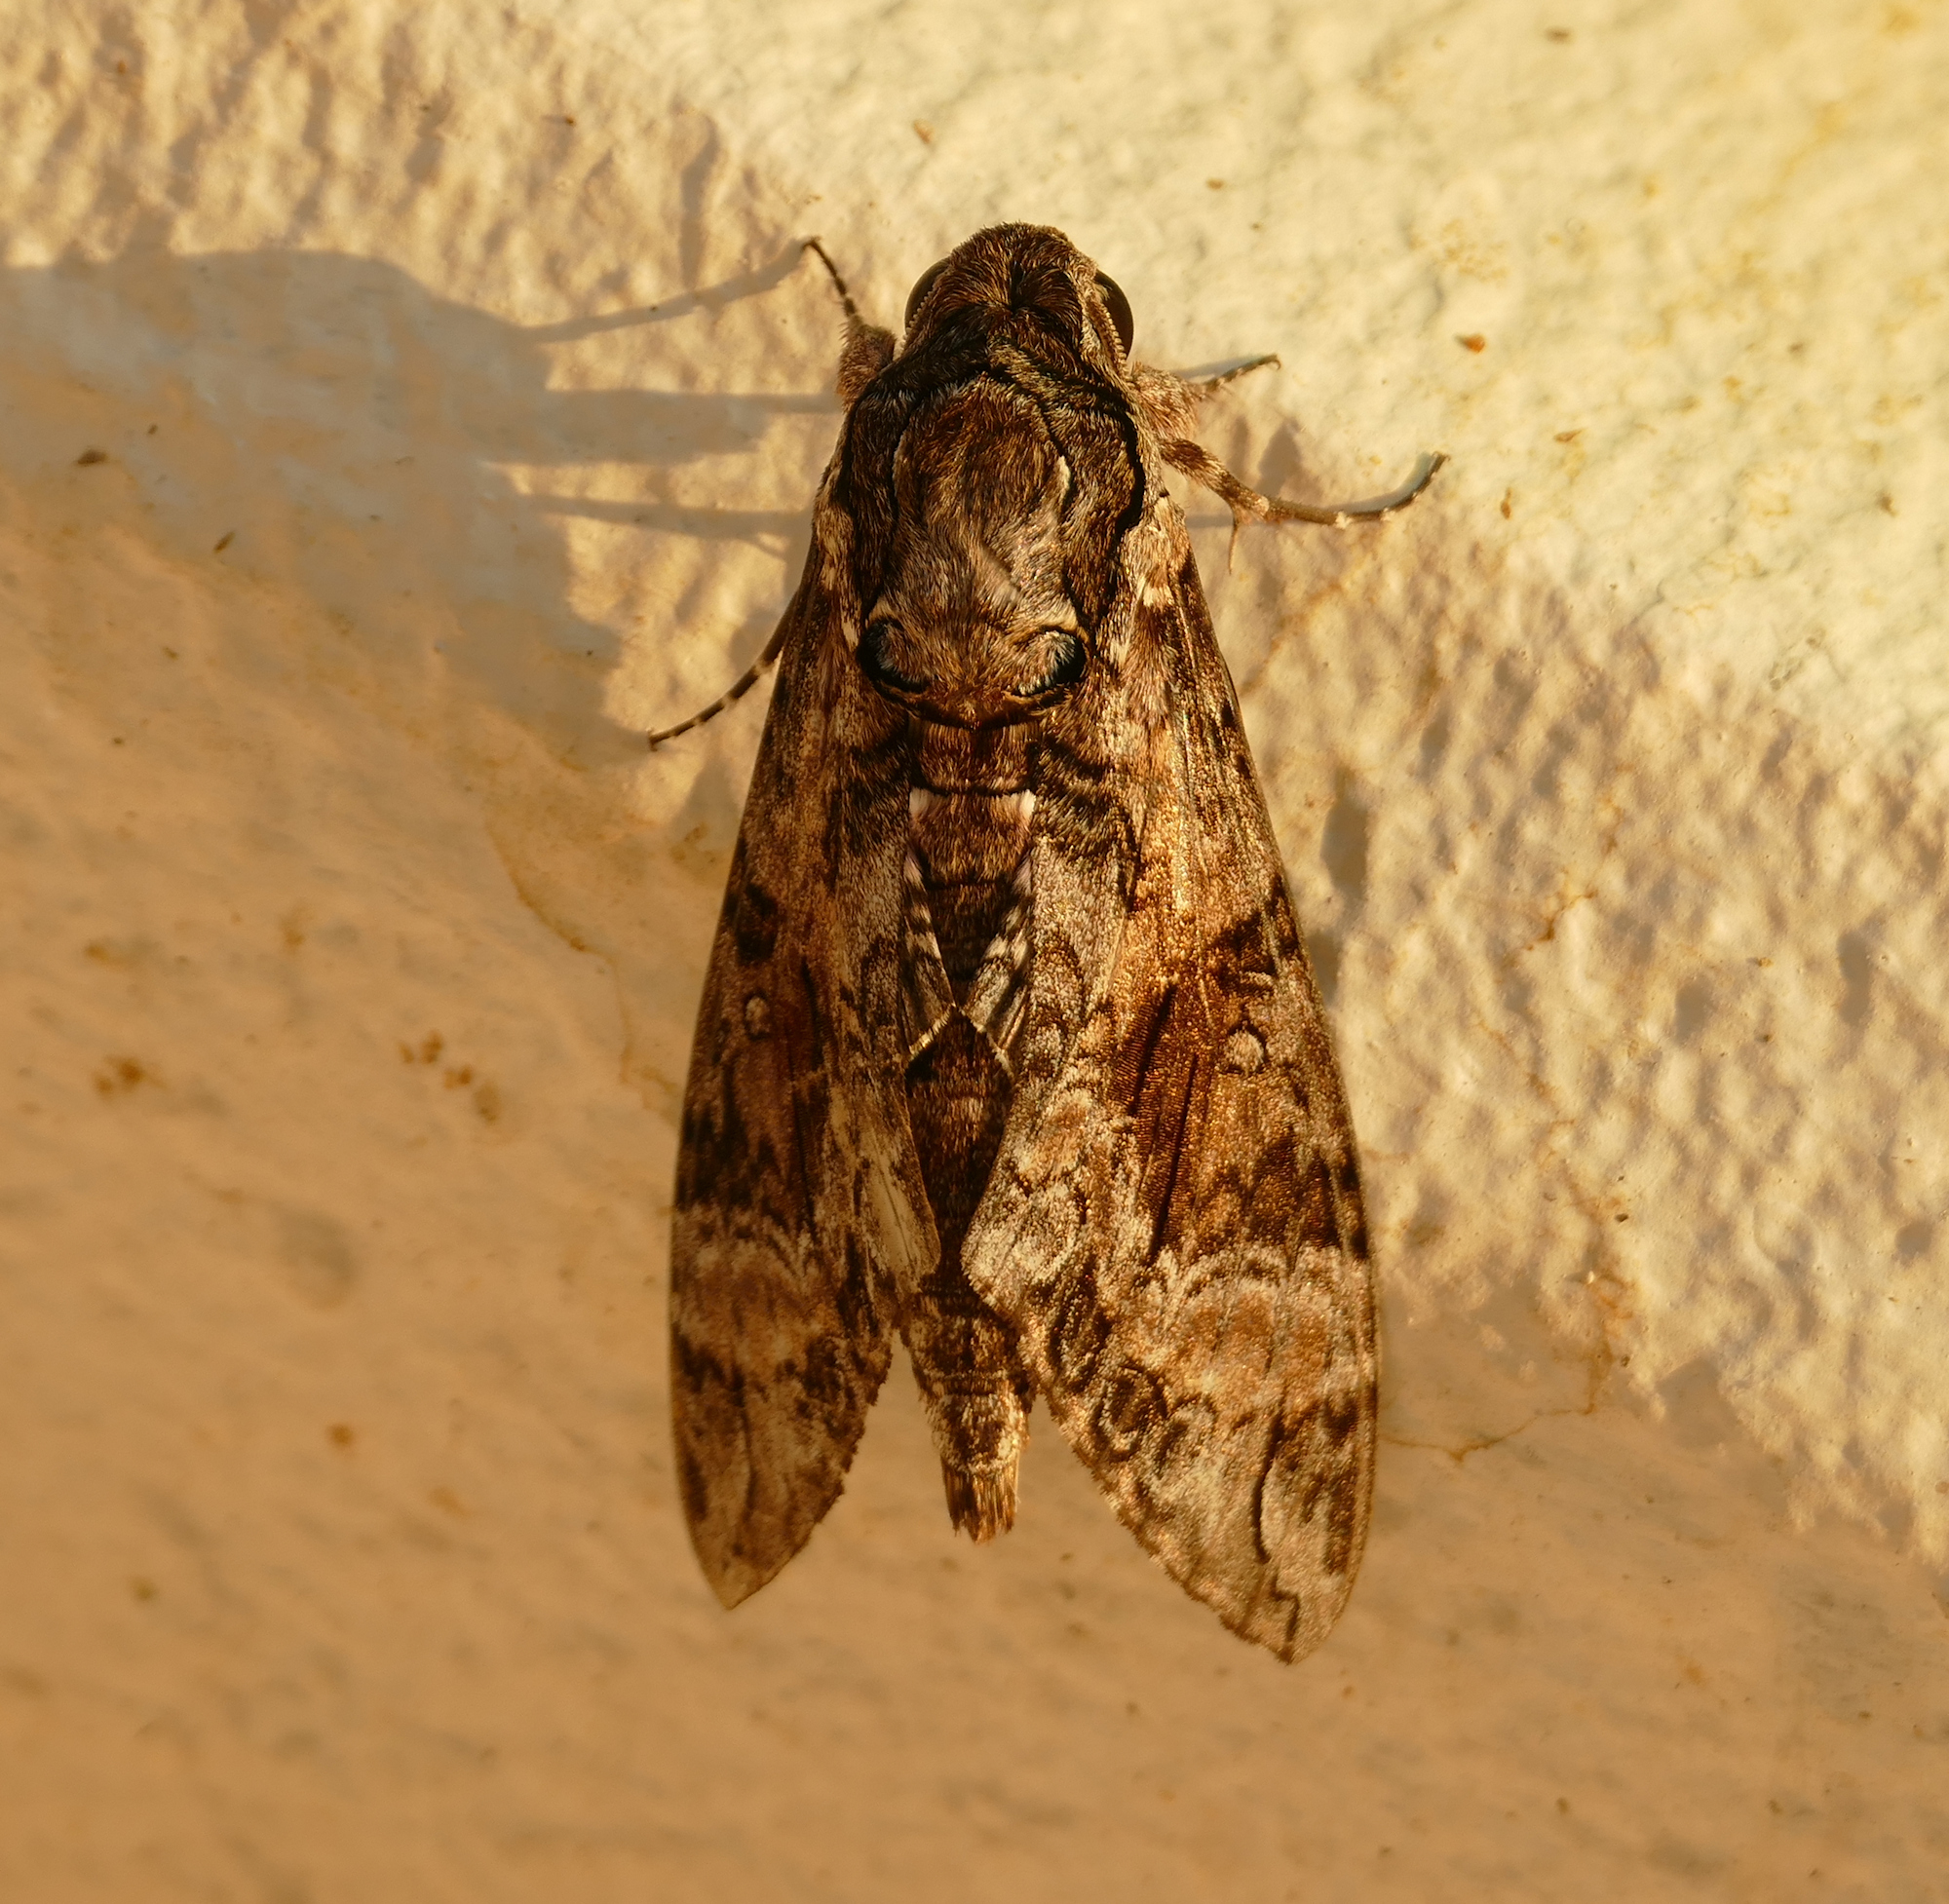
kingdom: Animalia
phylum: Arthropoda
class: Insecta
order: Lepidoptera
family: Sphingidae
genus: Agrius
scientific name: Agrius cingulata
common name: Pink-spotted hawkmoth
